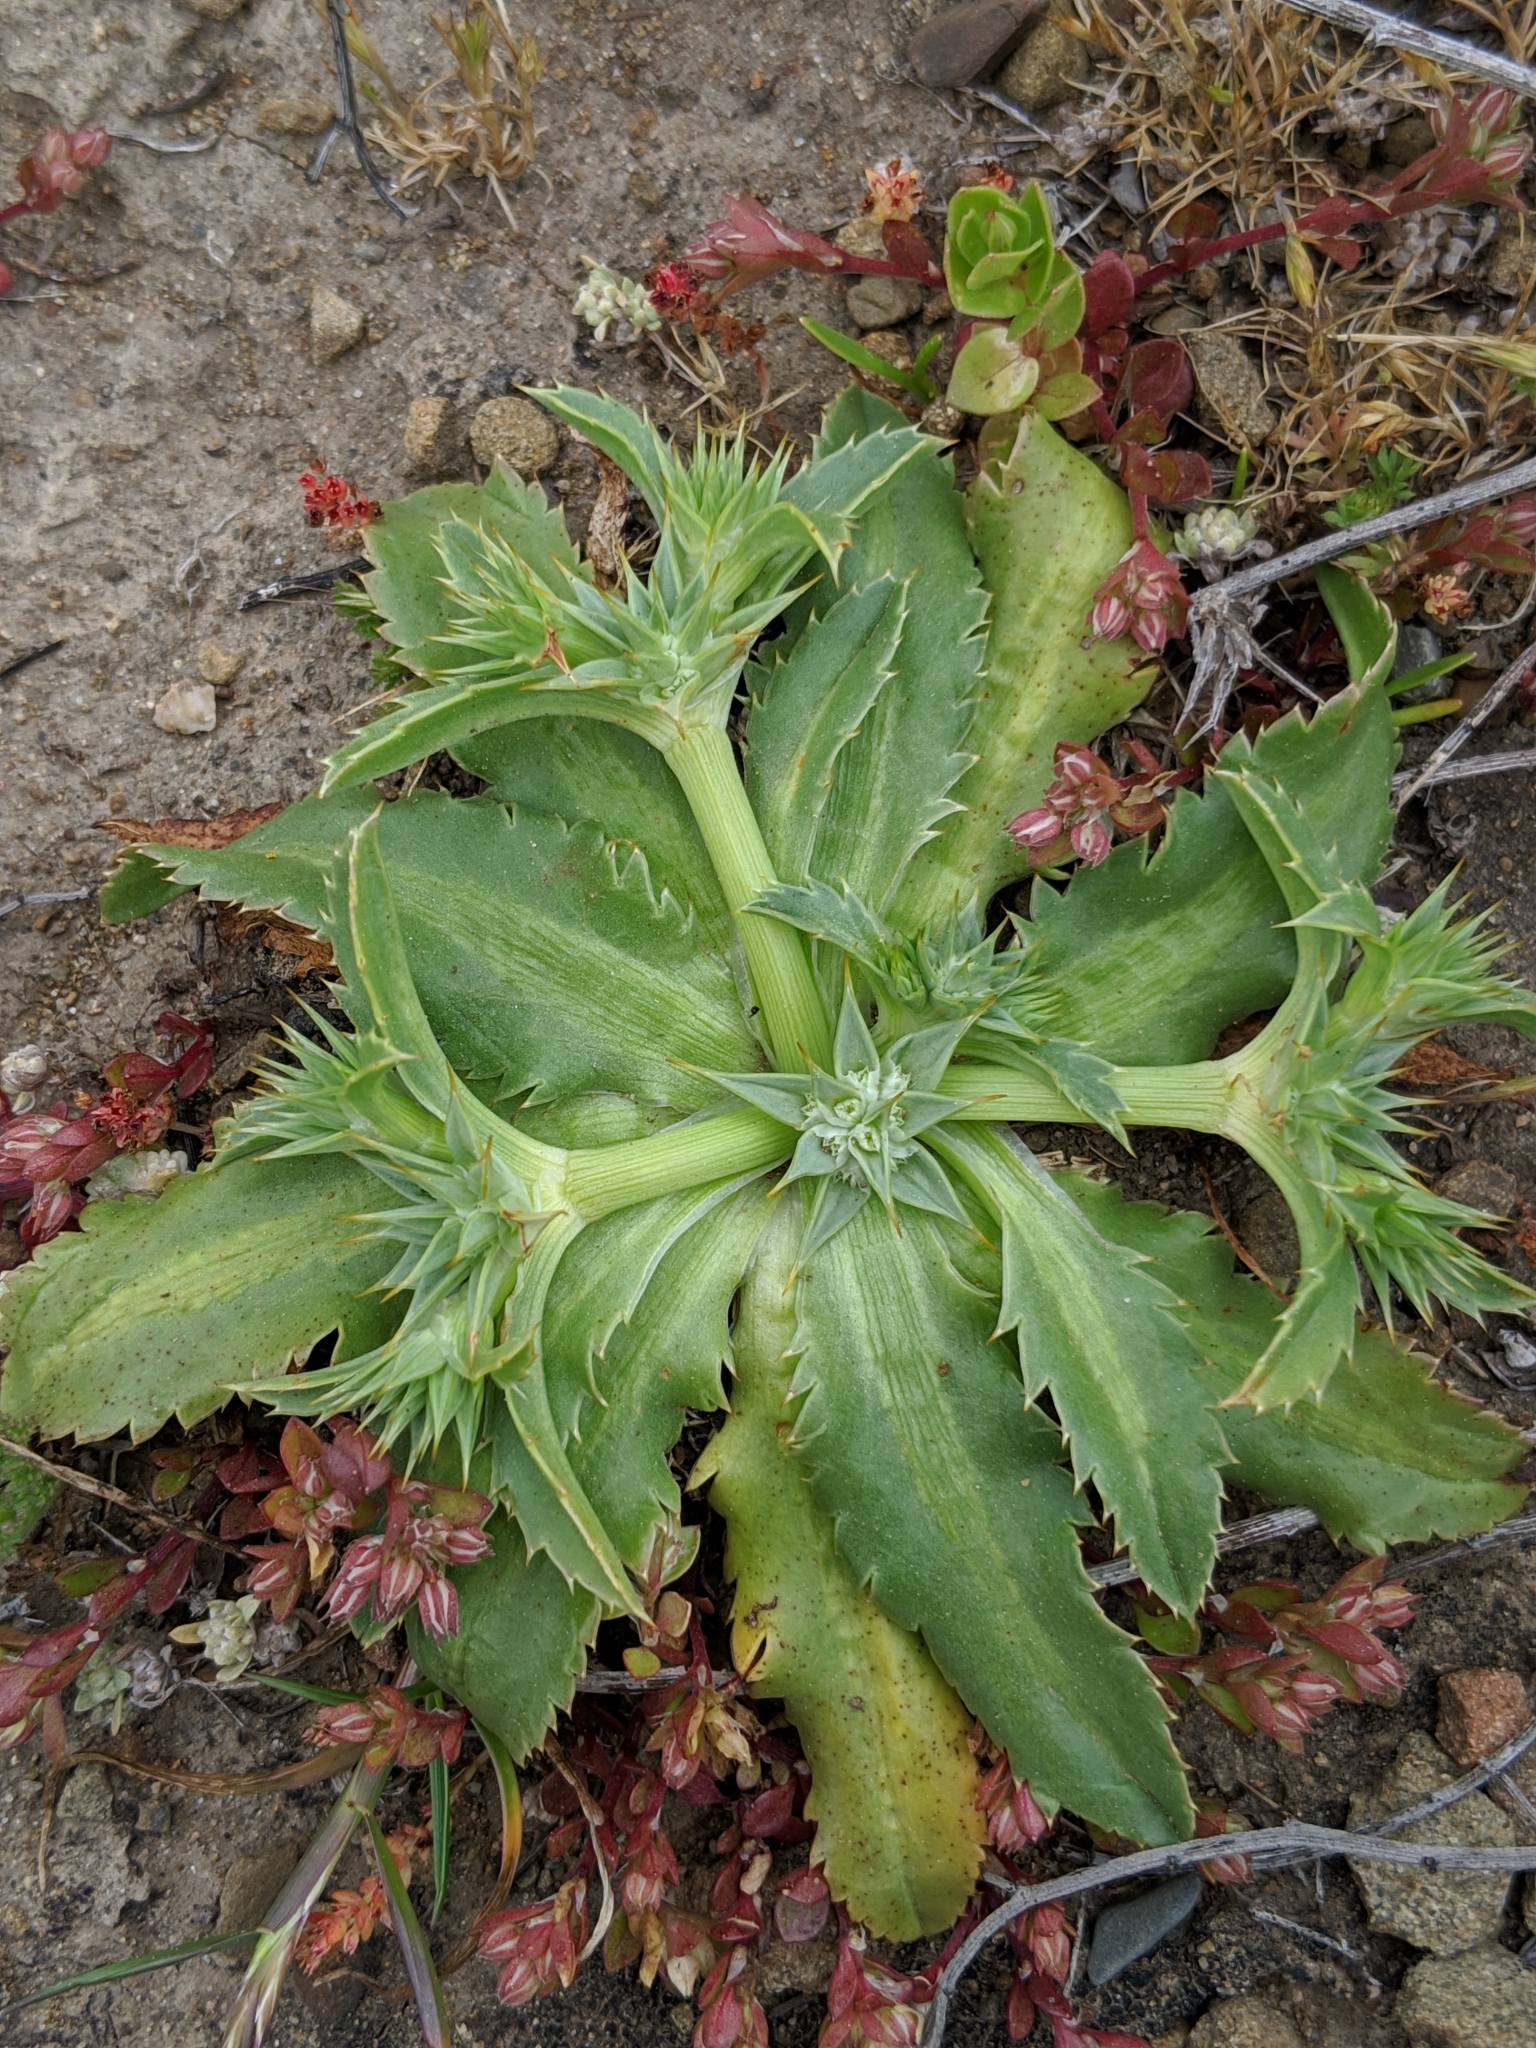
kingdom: Plantae
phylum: Tracheophyta
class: Magnoliopsida
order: Apiales
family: Apiaceae
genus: Eryngium
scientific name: Eryngium armatum
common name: Coyote thistle
